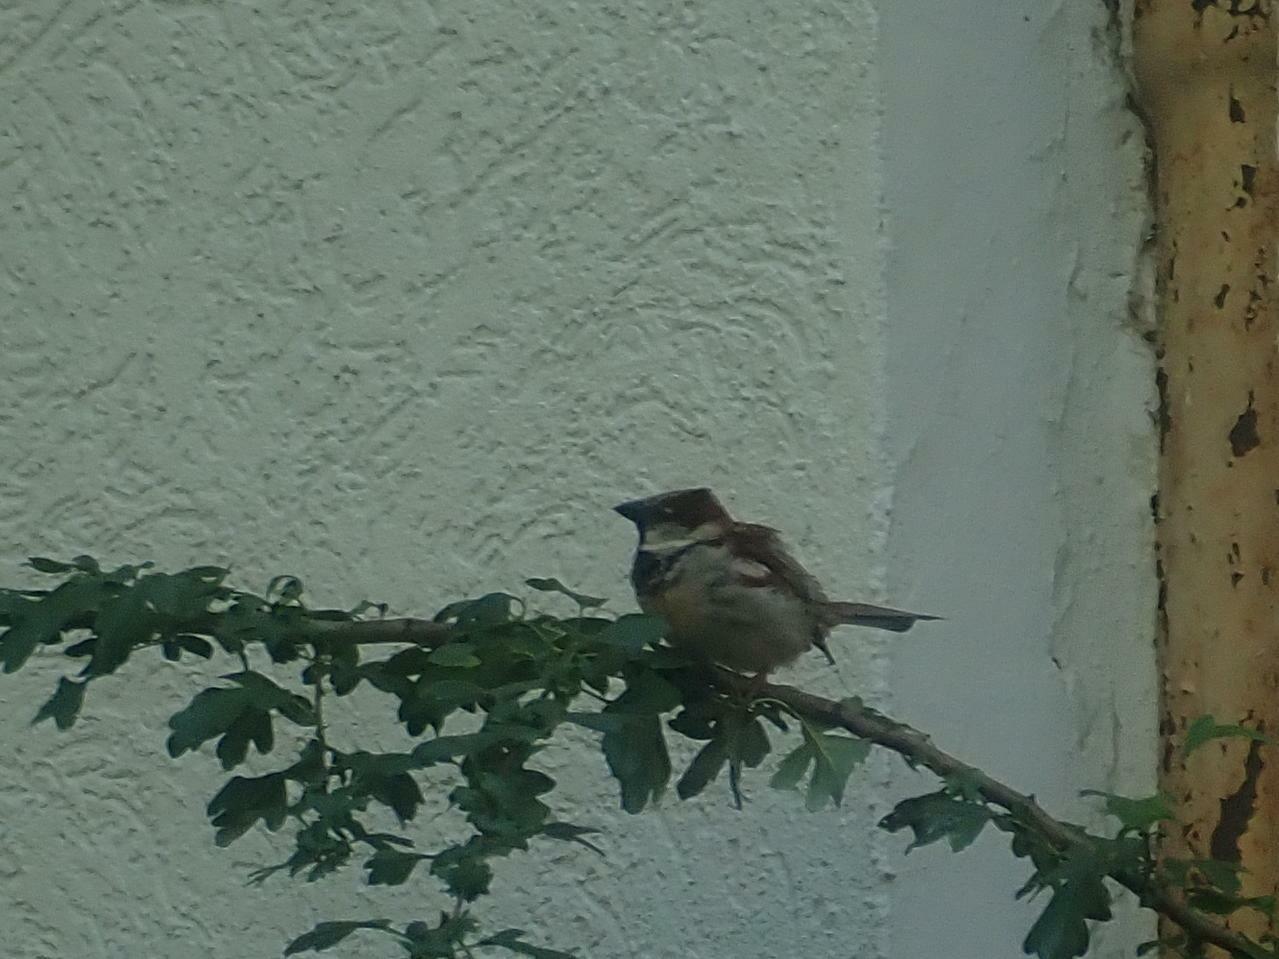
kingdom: Animalia
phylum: Chordata
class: Aves
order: Passeriformes
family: Passeridae
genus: Passer
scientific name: Passer domesticus
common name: House sparrow
